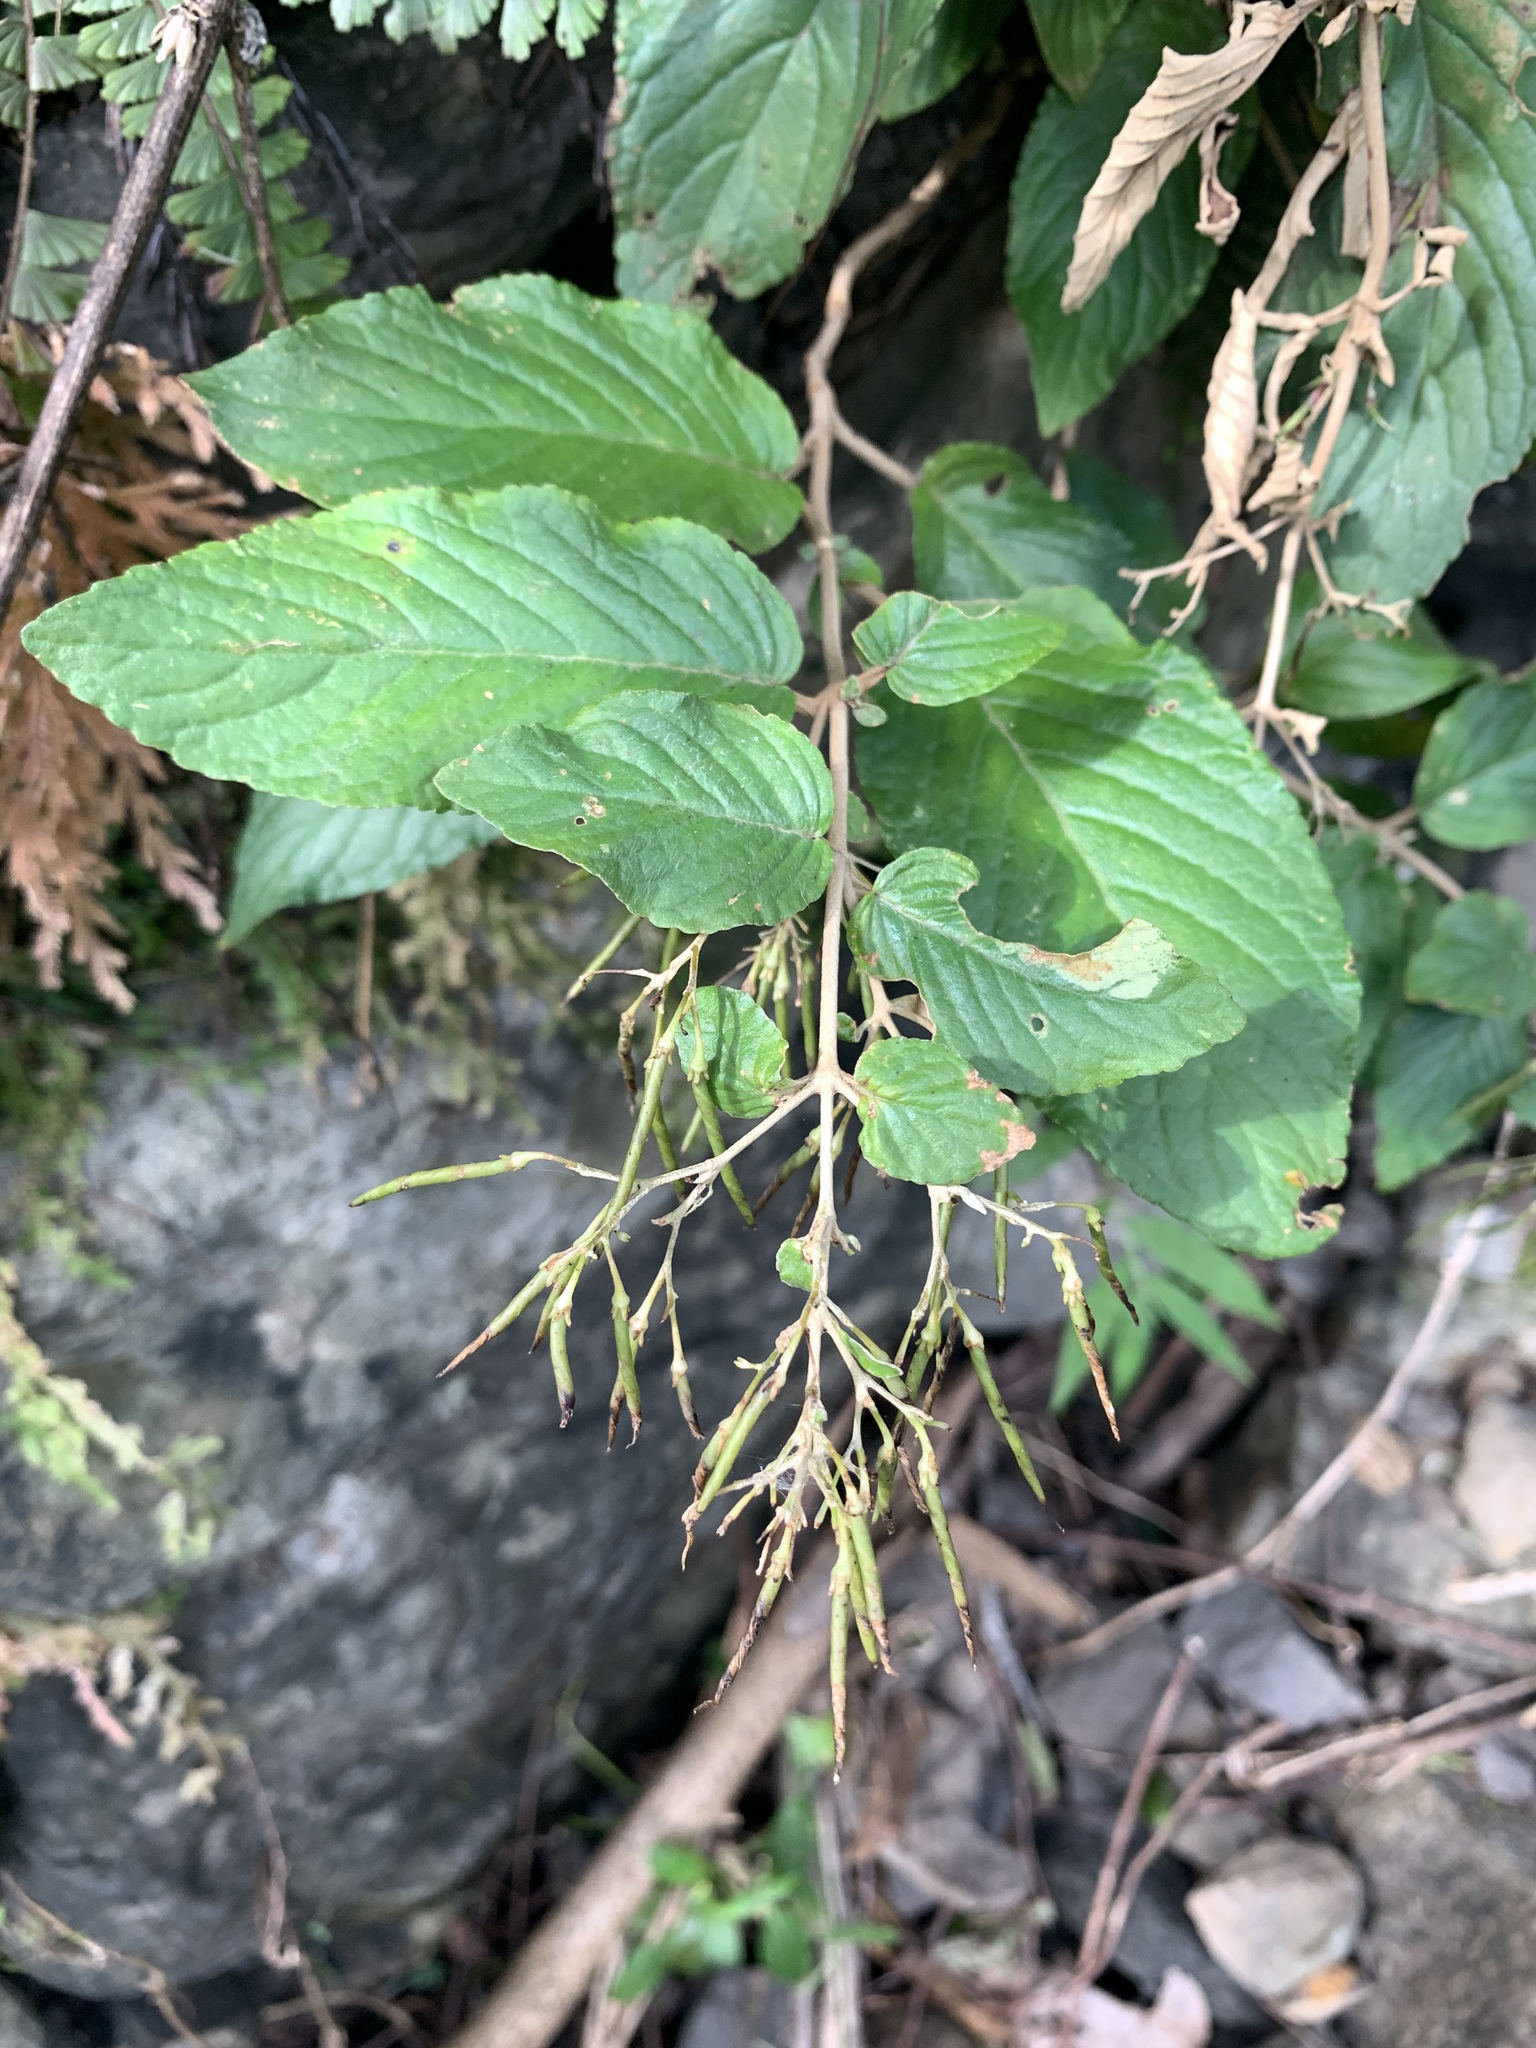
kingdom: Plantae
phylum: Tracheophyta
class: Magnoliopsida
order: Lamiales
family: Gesneriaceae
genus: Paraboea
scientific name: Paraboea swinhoei
